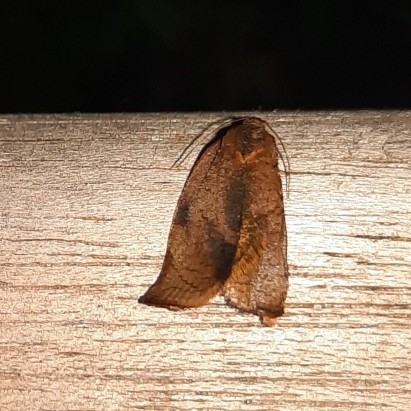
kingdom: Animalia
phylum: Arthropoda
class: Insecta
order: Lepidoptera
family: Tortricidae
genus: Cacoecimorpha
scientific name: Cacoecimorpha pronubana
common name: Carnation tortrix
